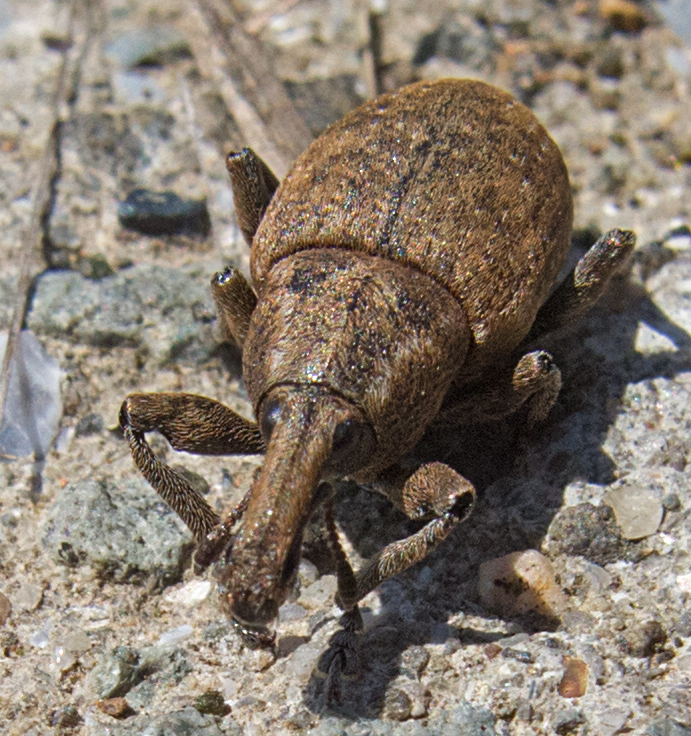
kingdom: Animalia
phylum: Arthropoda
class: Insecta
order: Coleoptera
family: Curculionidae
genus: Lepyrus
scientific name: Lepyrus capucinus
